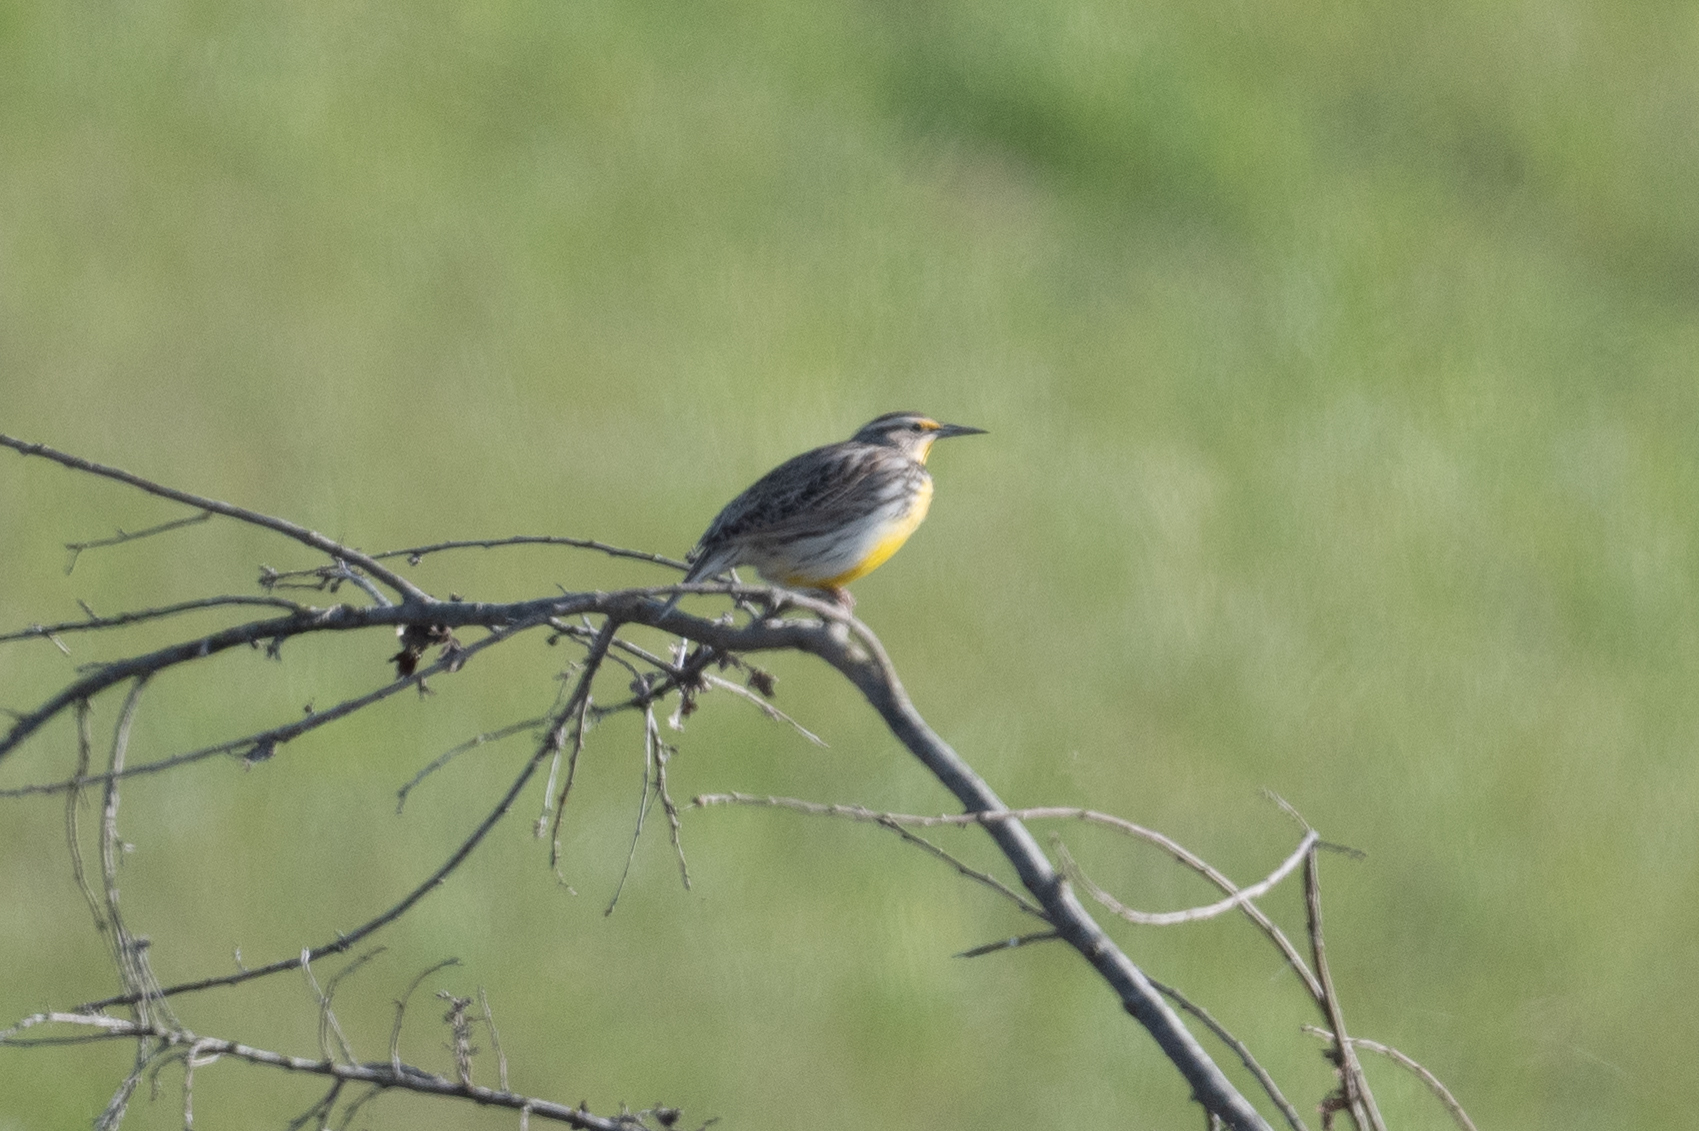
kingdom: Animalia
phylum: Chordata
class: Aves
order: Passeriformes
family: Icteridae
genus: Sturnella
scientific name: Sturnella neglecta
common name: Western meadowlark
